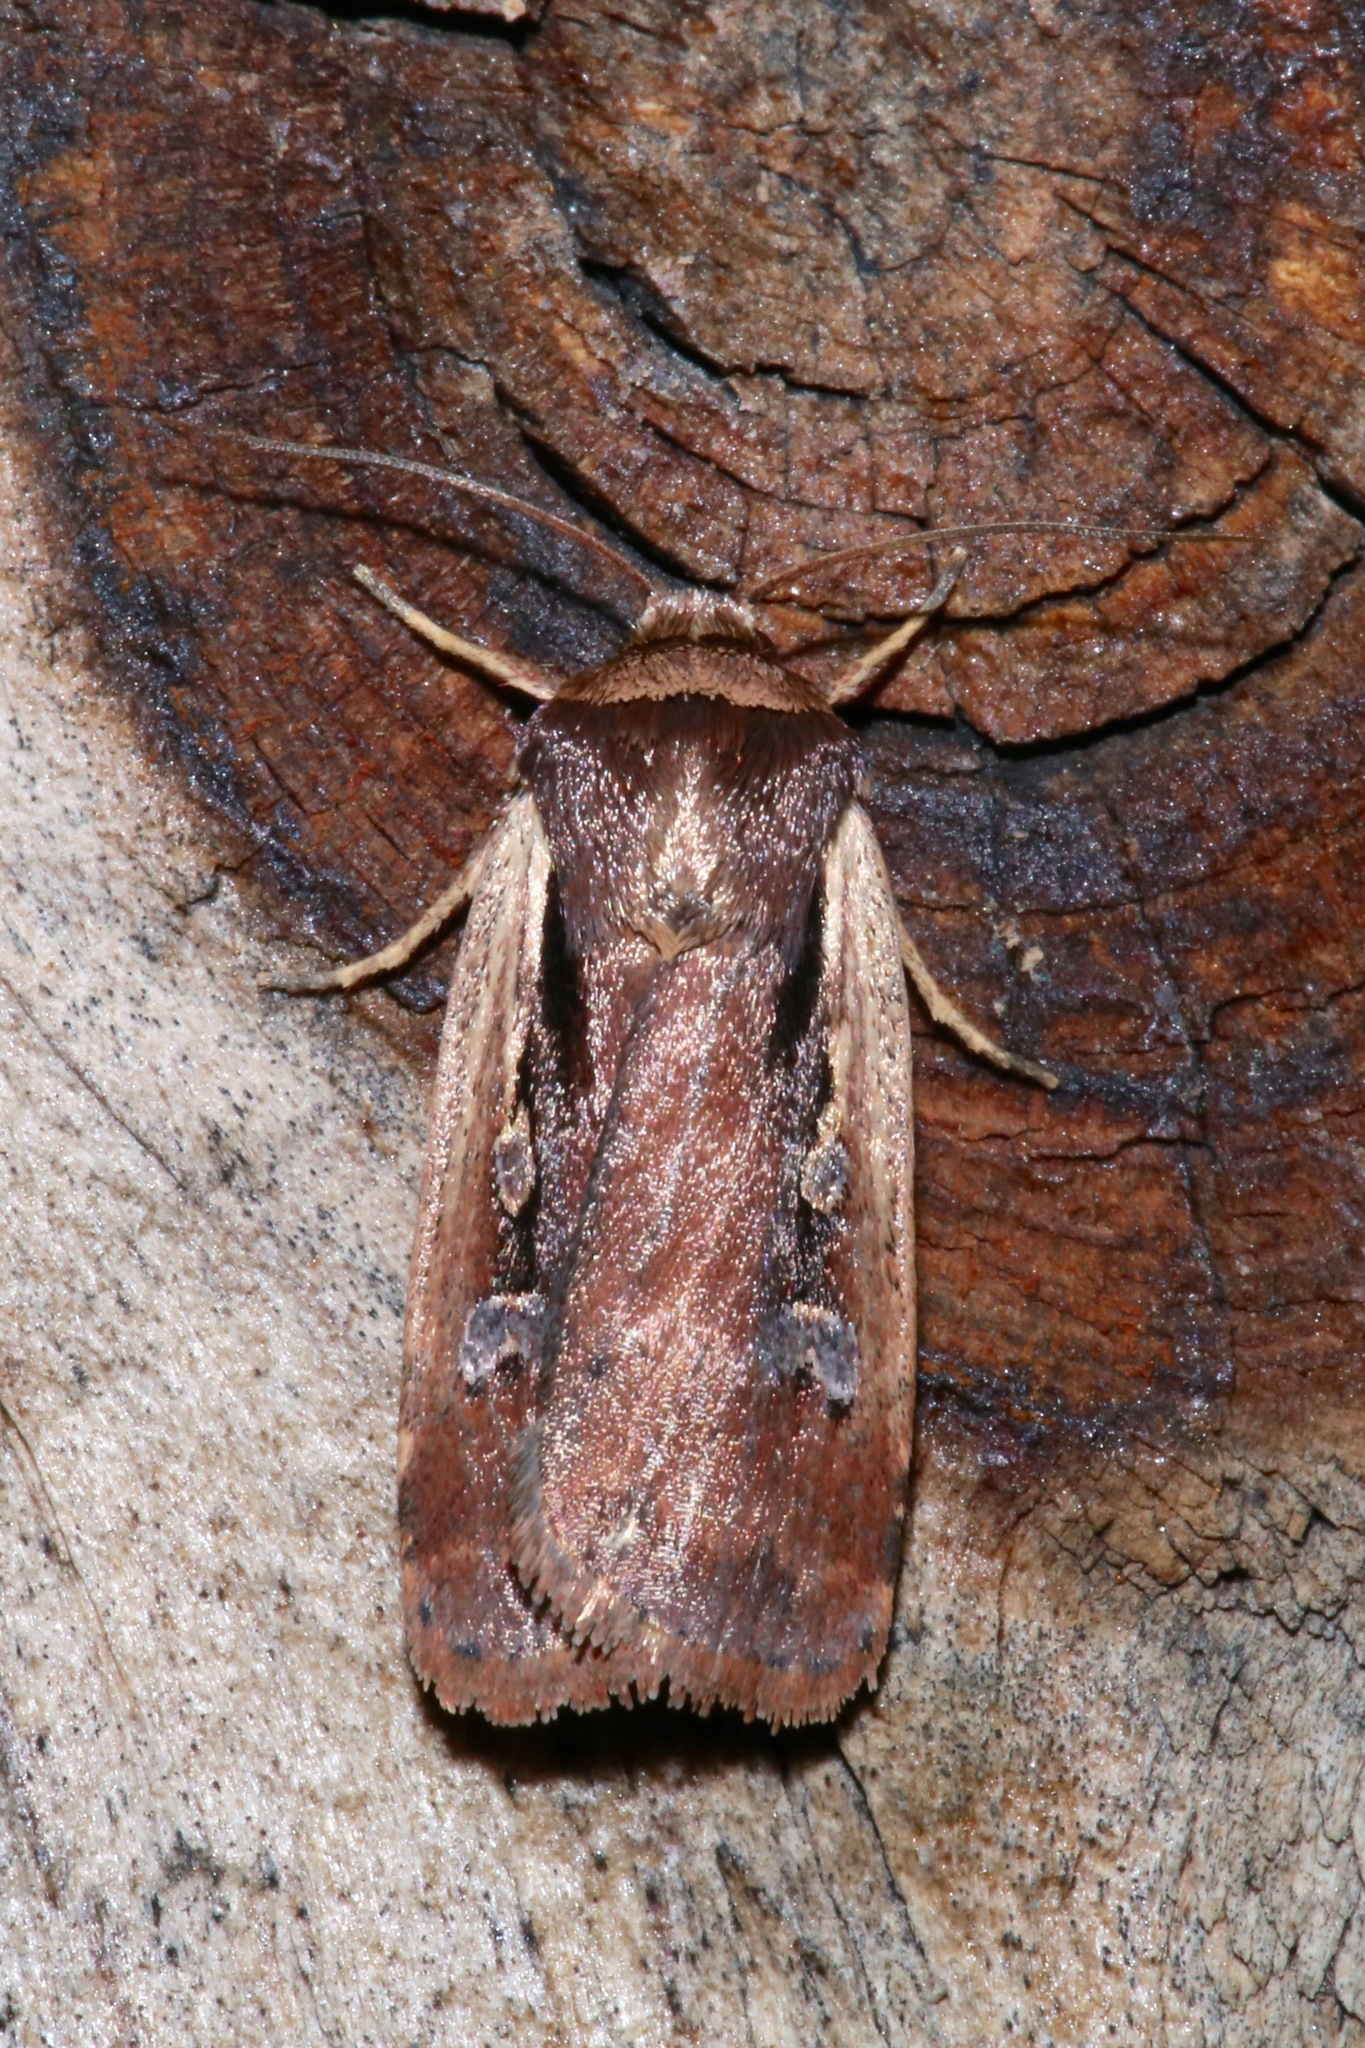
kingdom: Animalia
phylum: Arthropoda
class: Insecta
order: Lepidoptera
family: Noctuidae
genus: Ochropleura
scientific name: Ochropleura implecta
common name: Flame-shouldered dart
